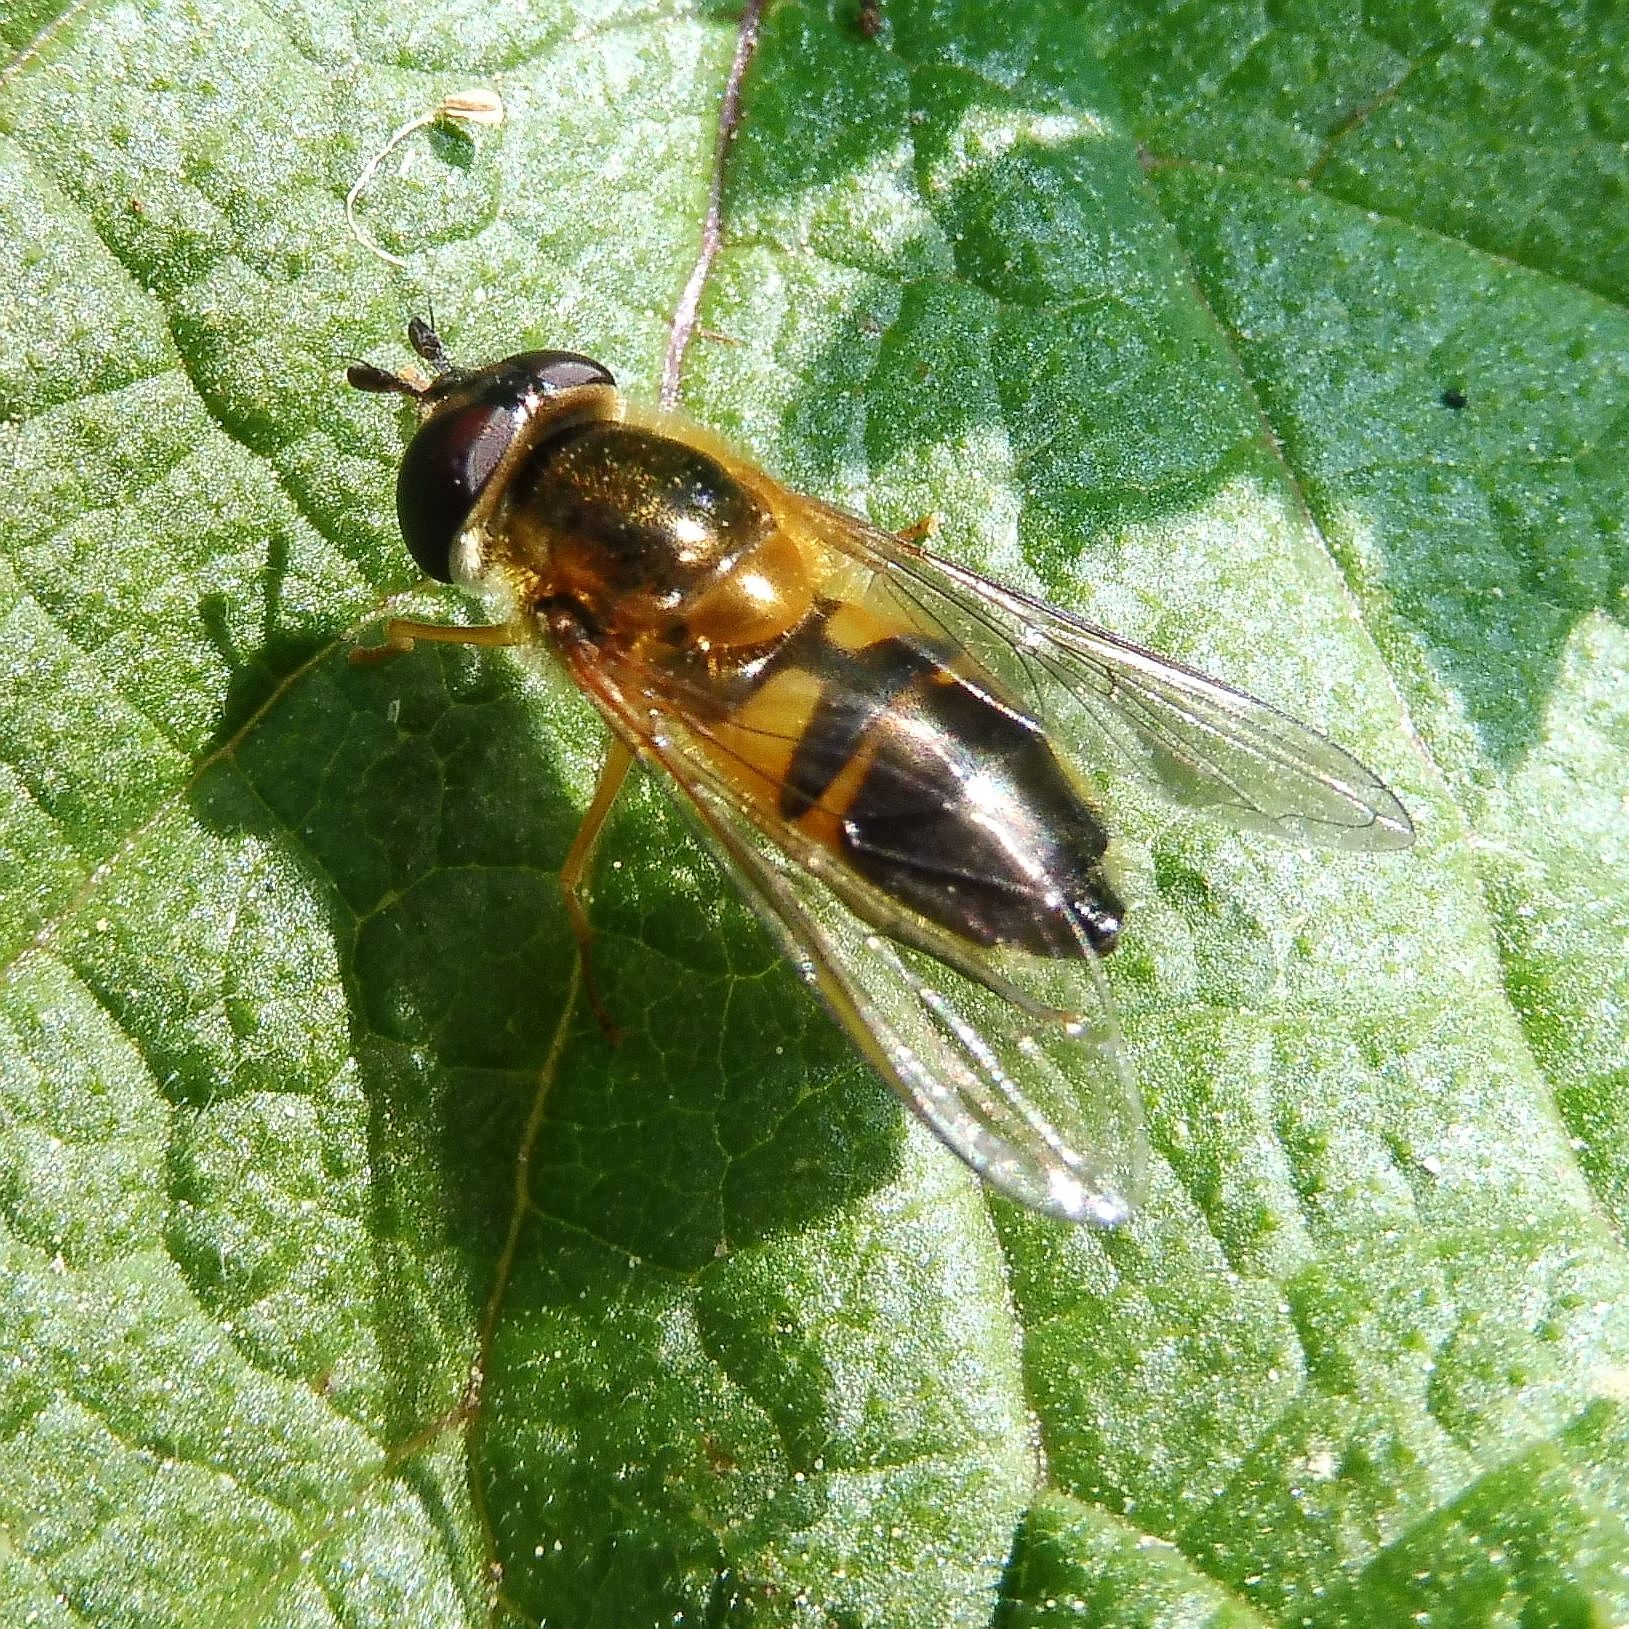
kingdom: Animalia
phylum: Arthropoda
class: Insecta
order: Diptera
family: Syrphidae
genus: Epistrophe
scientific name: Epistrophe eligans
